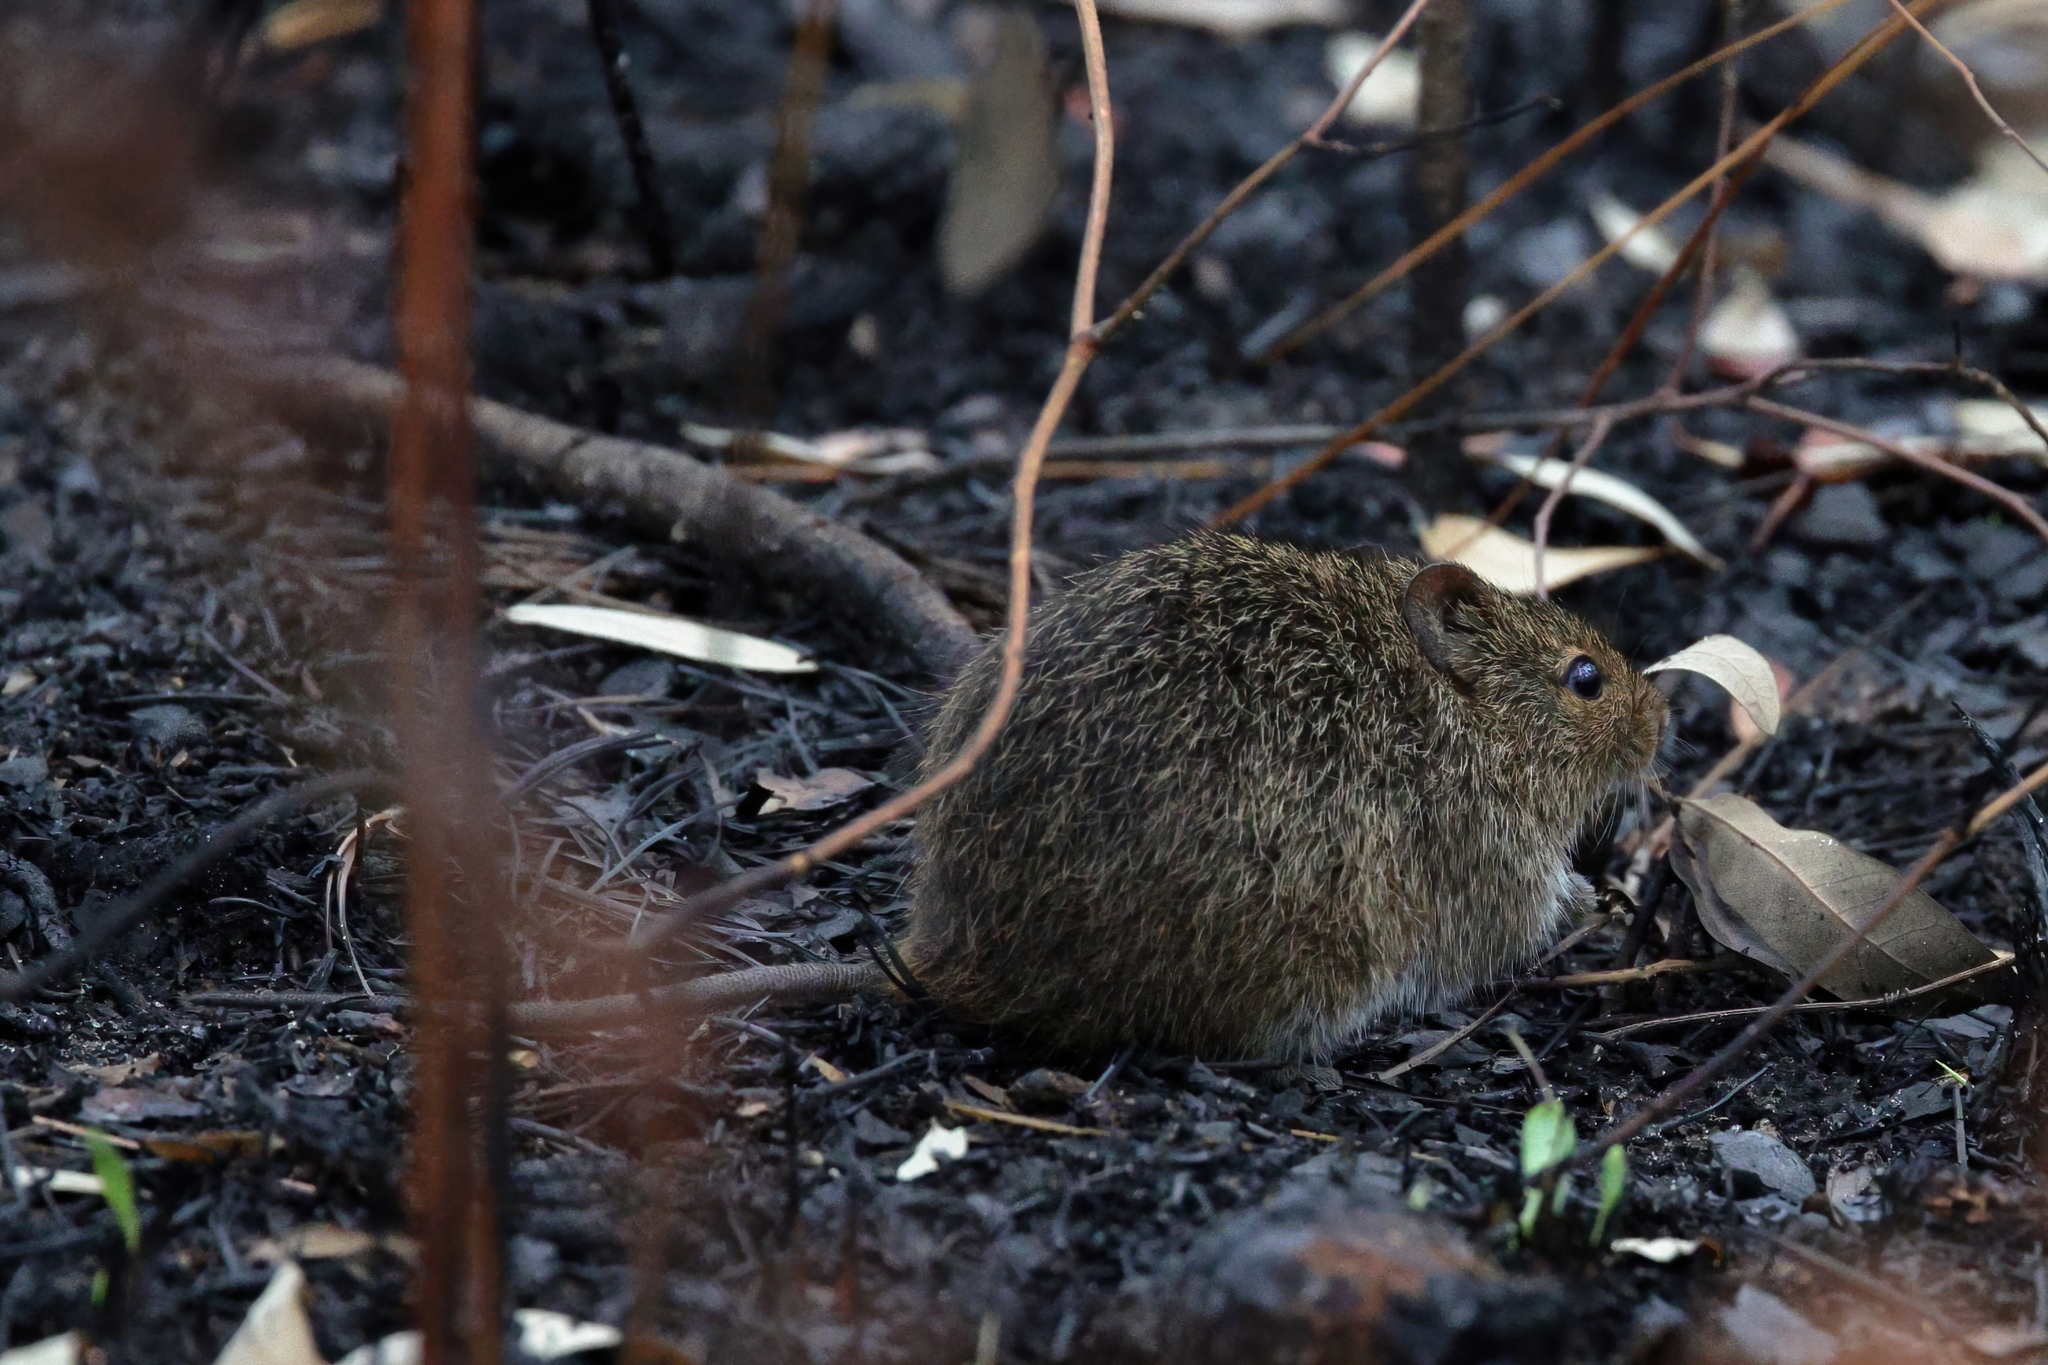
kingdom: Animalia
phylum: Chordata
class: Mammalia
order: Rodentia
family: Cricetidae
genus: Sigmodon
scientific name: Sigmodon hispidus
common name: Hispid cotton rat
